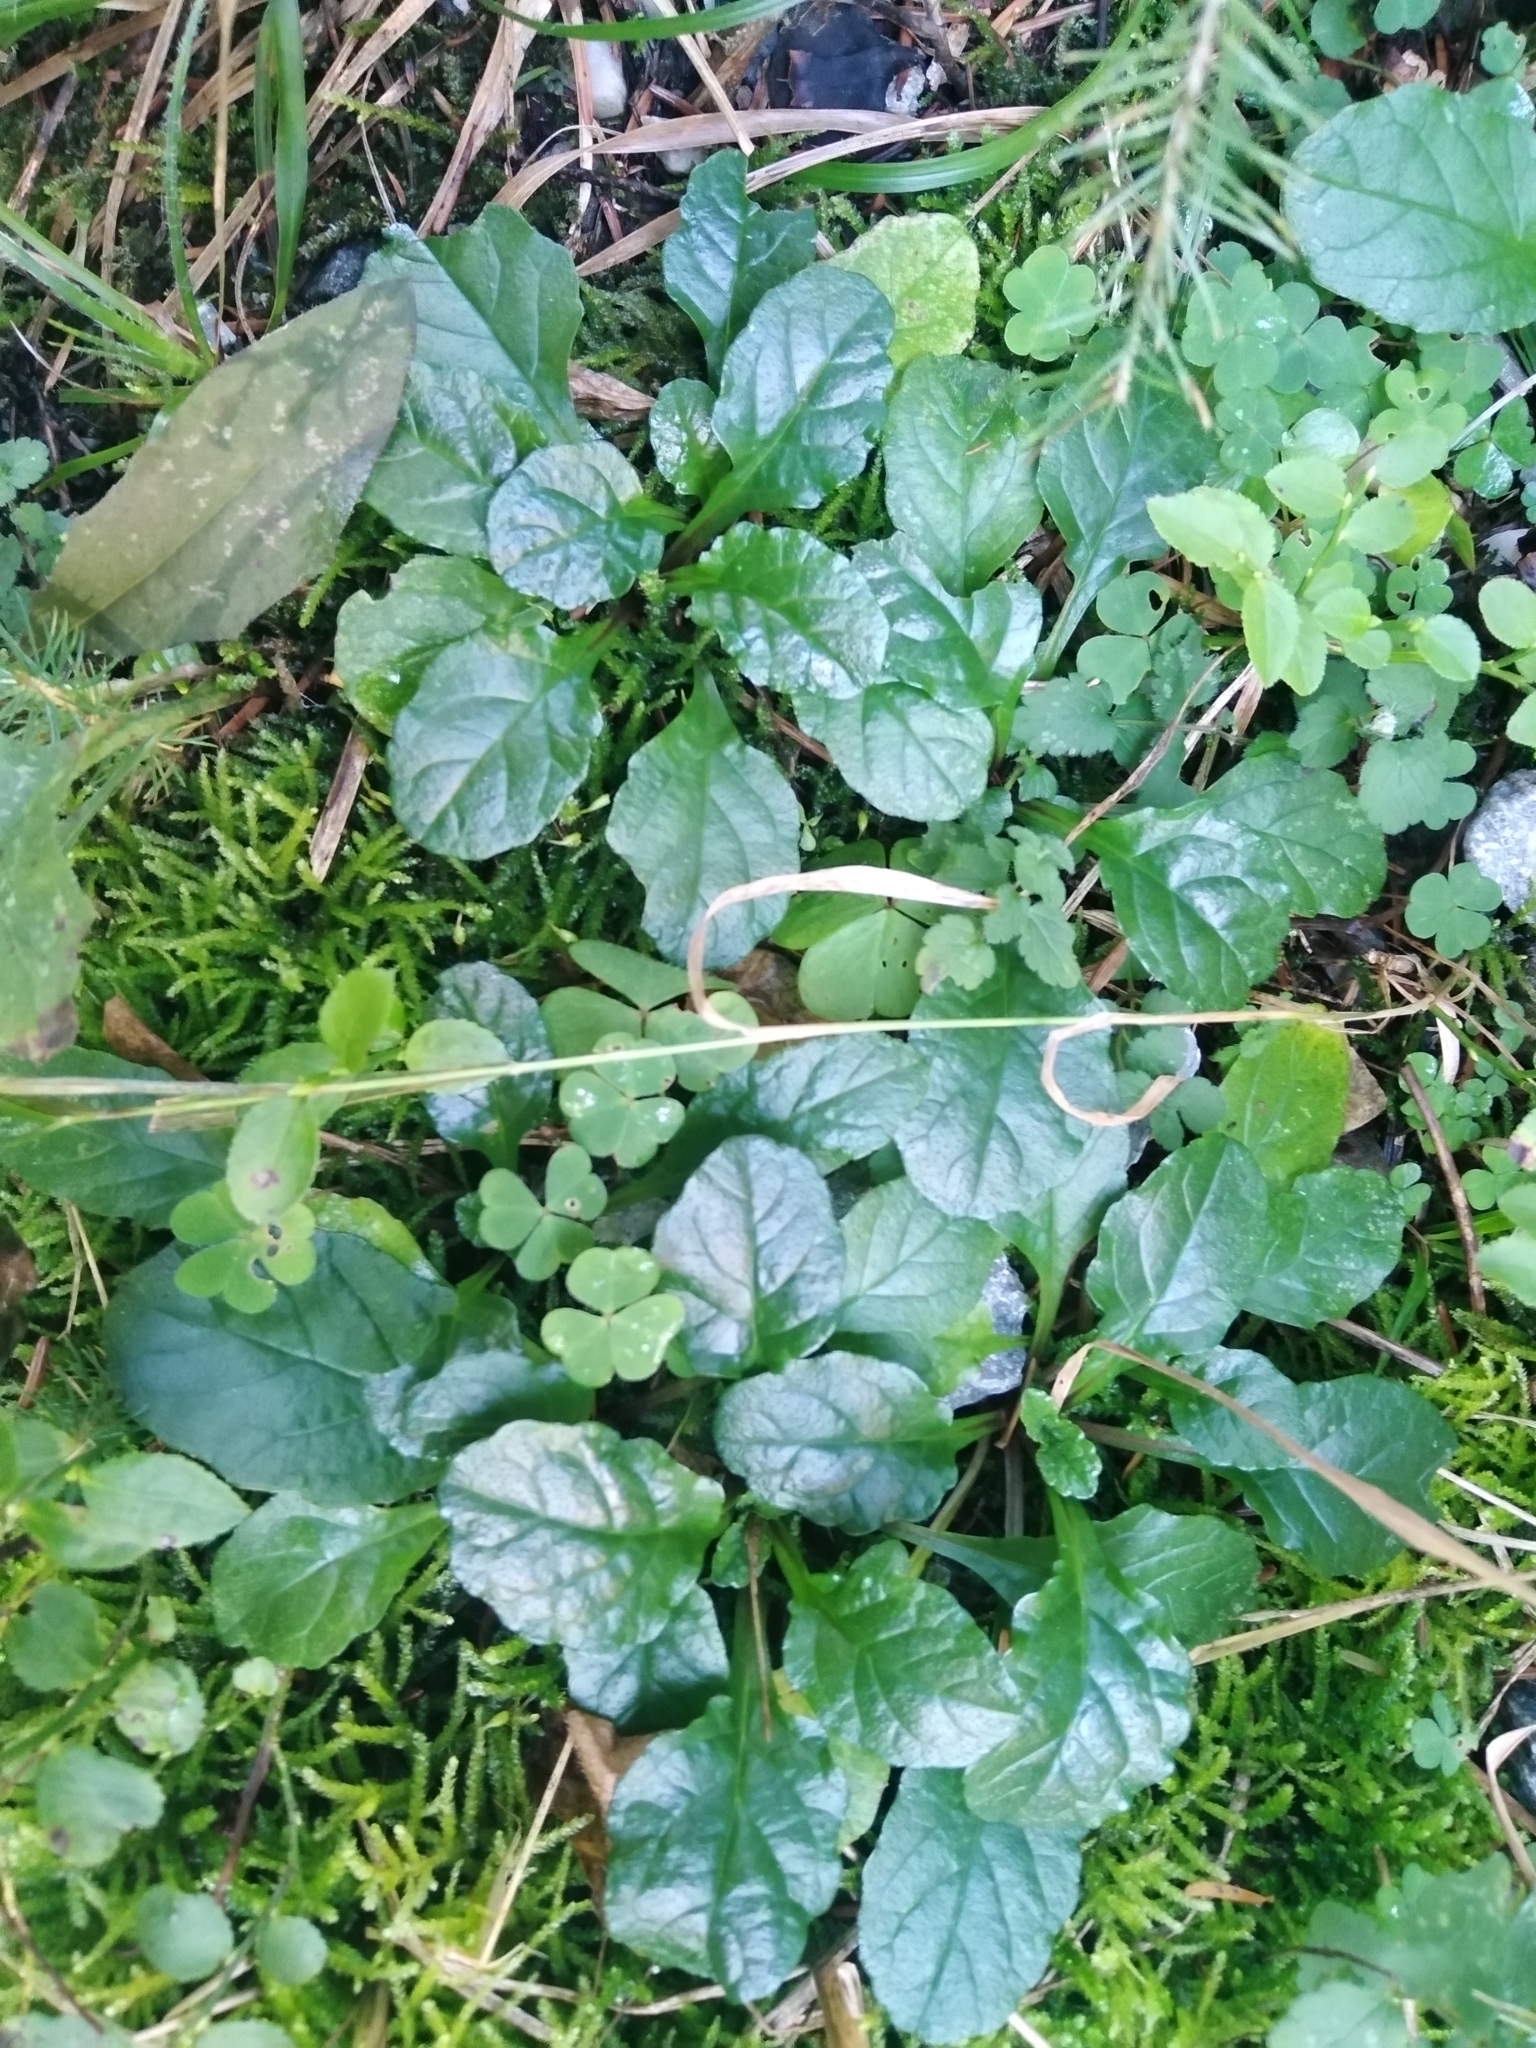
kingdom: Plantae
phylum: Tracheophyta
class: Magnoliopsida
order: Lamiales
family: Lamiaceae
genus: Ajuga
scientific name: Ajuga reptans
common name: Bugle
